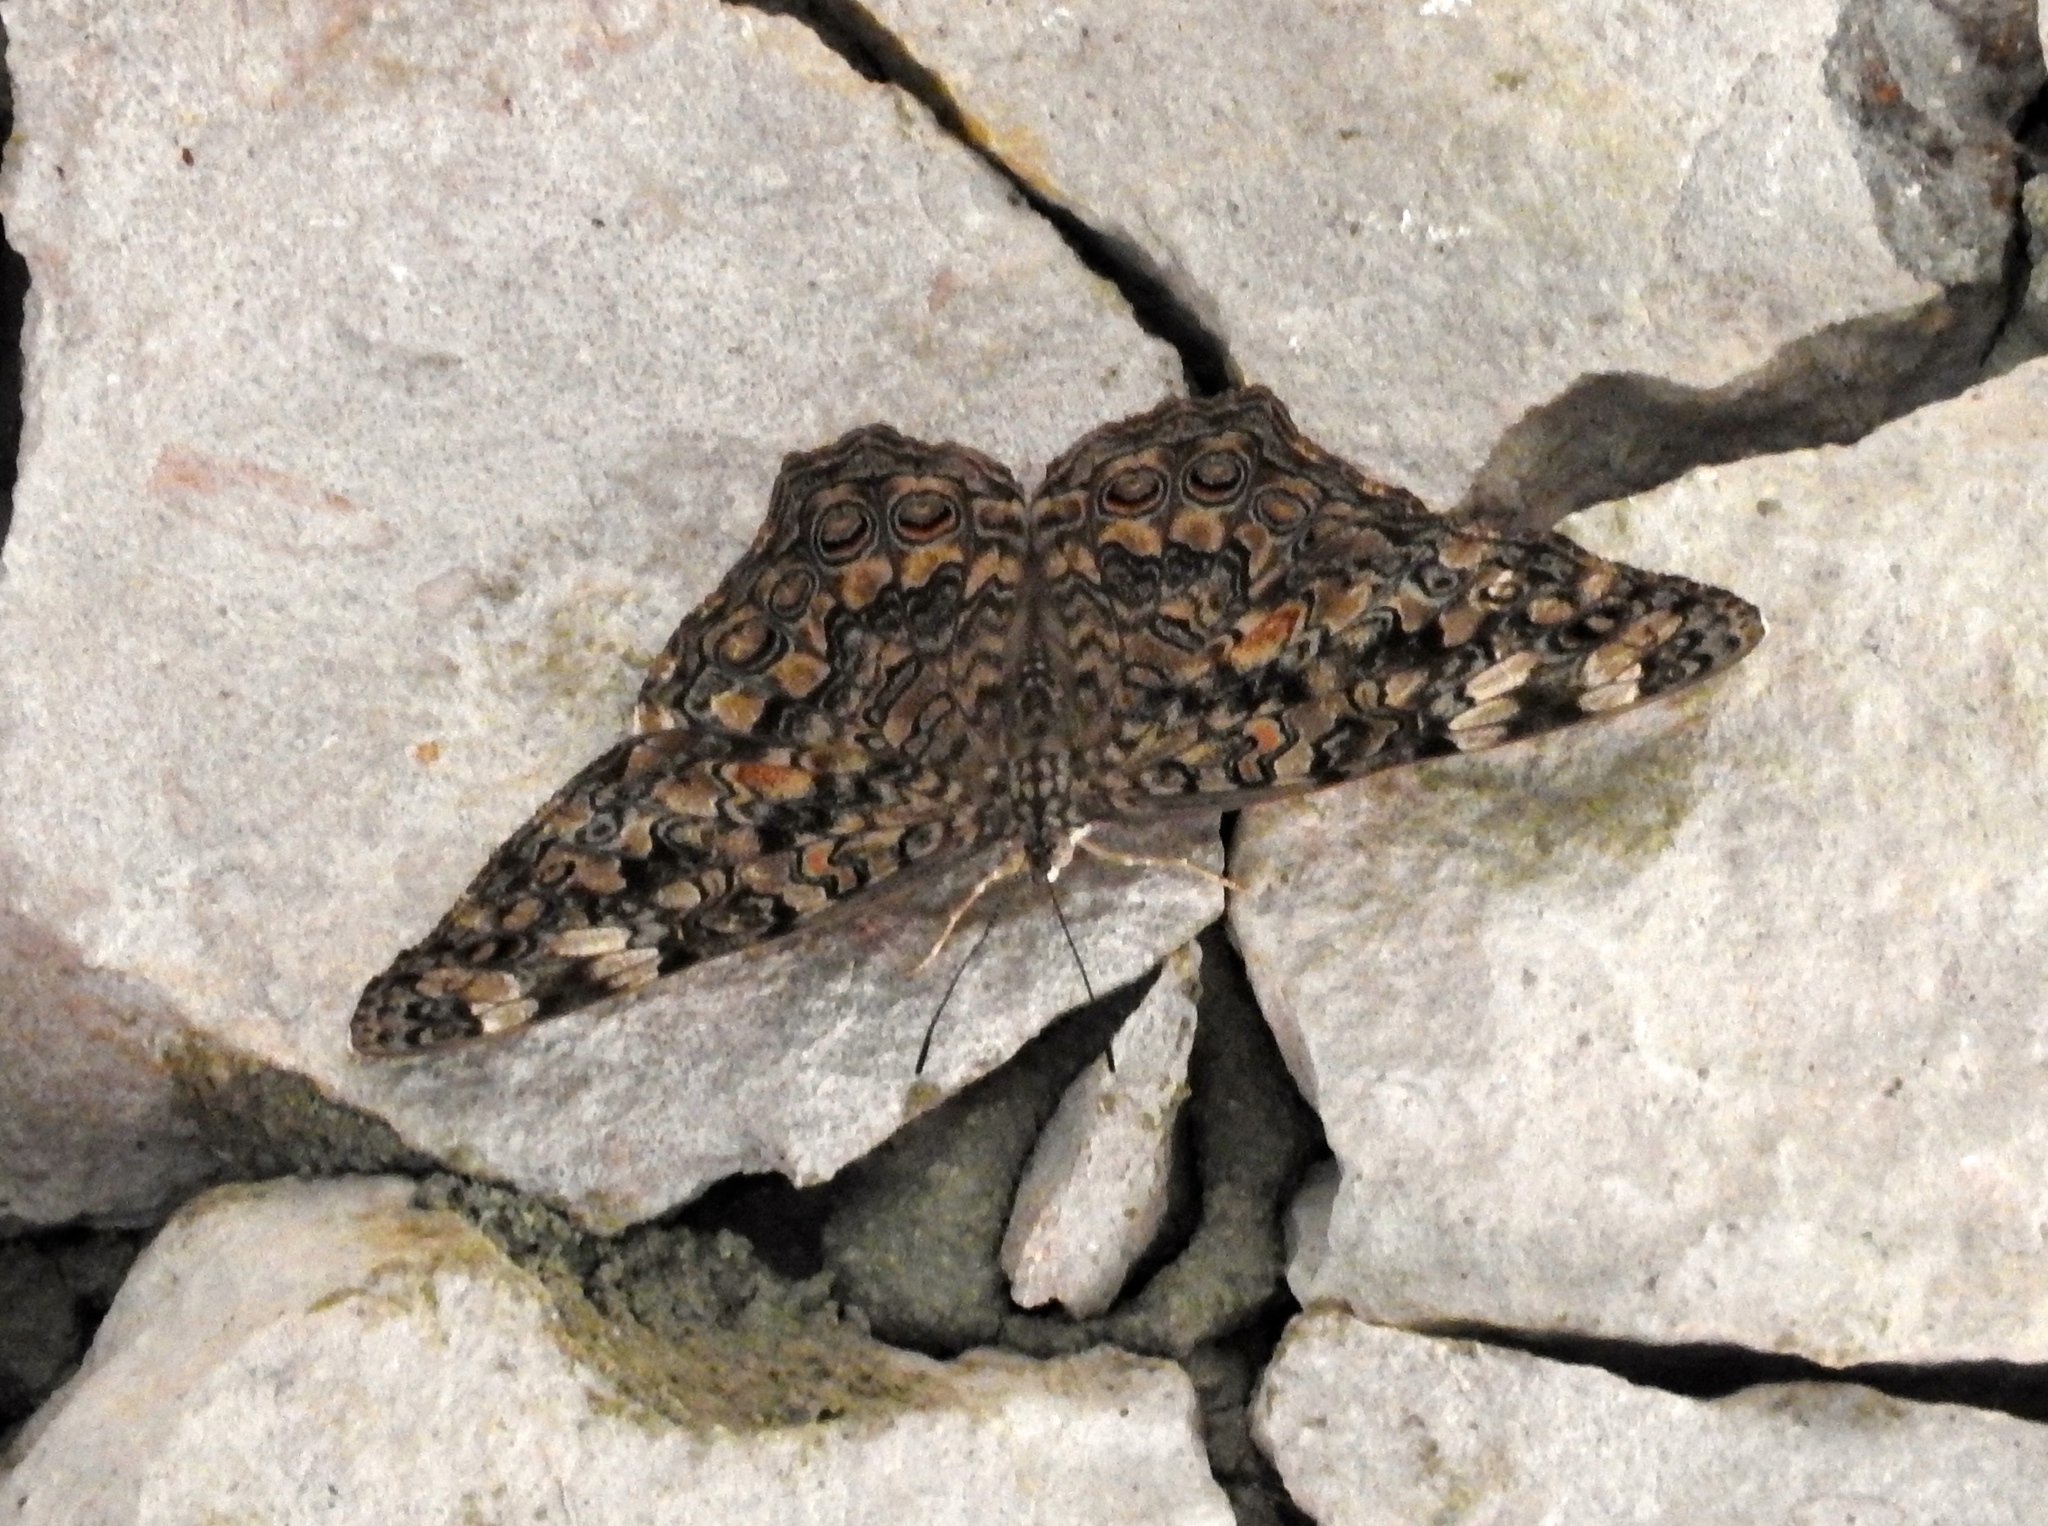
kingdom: Animalia
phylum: Arthropoda
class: Insecta
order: Lepidoptera
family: Nymphalidae
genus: Hamadryas
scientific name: Hamadryas februa
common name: Gray cracker
